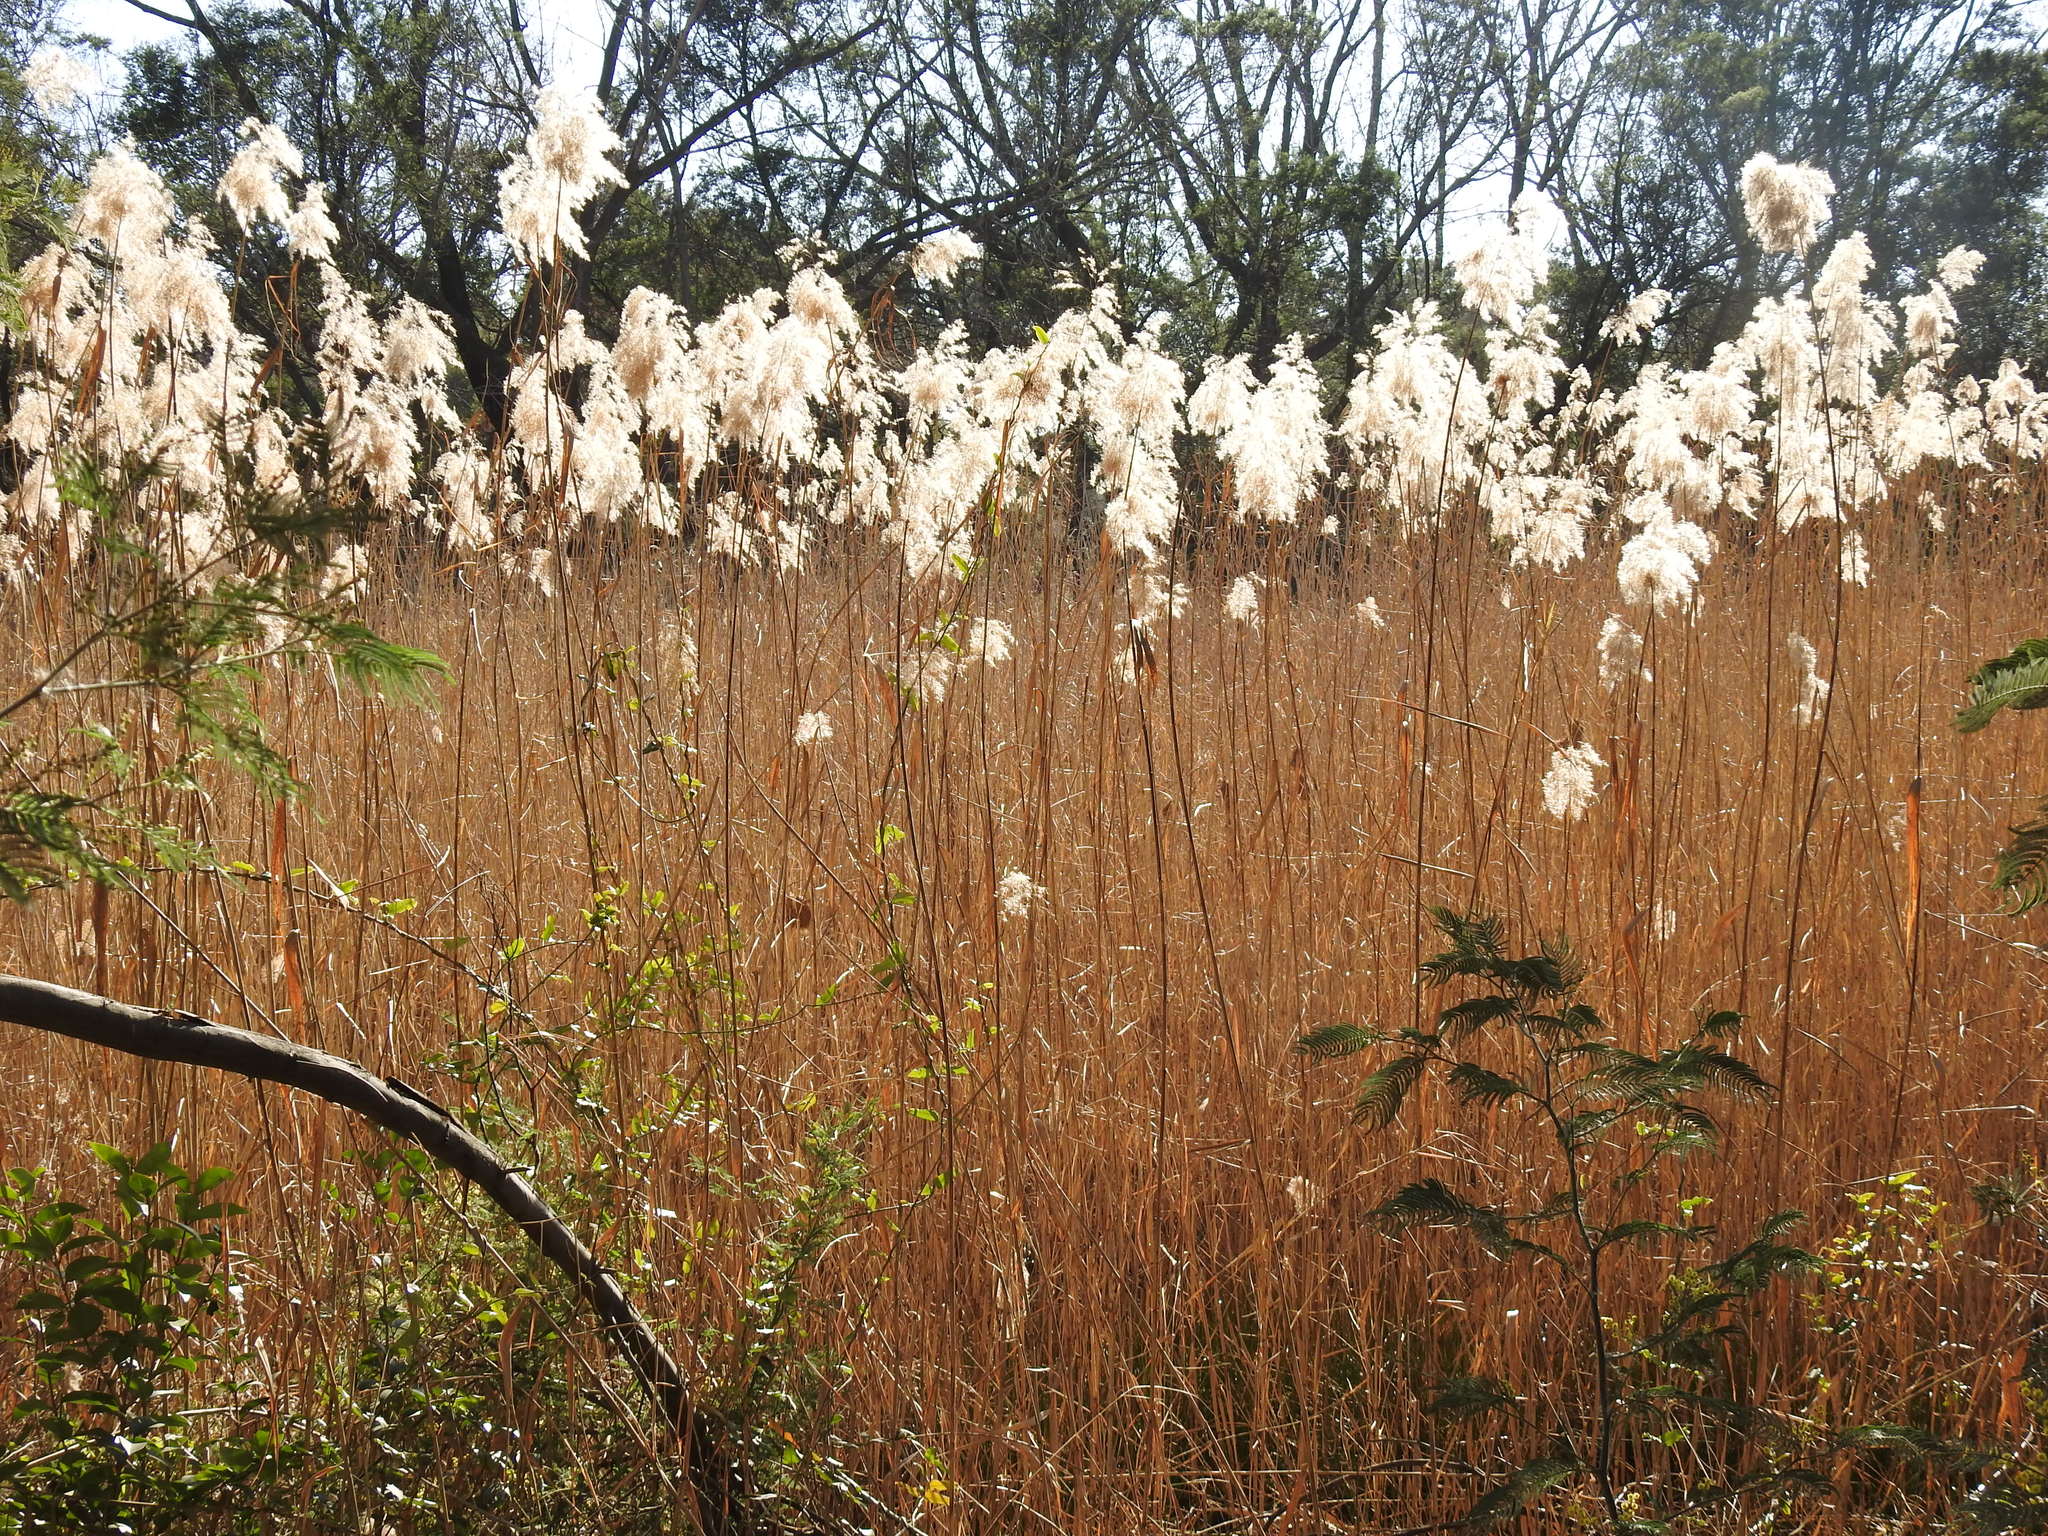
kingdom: Plantae
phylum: Tracheophyta
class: Liliopsida
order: Poales
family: Poaceae
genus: Phragmites
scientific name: Phragmites australis
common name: Common reed
